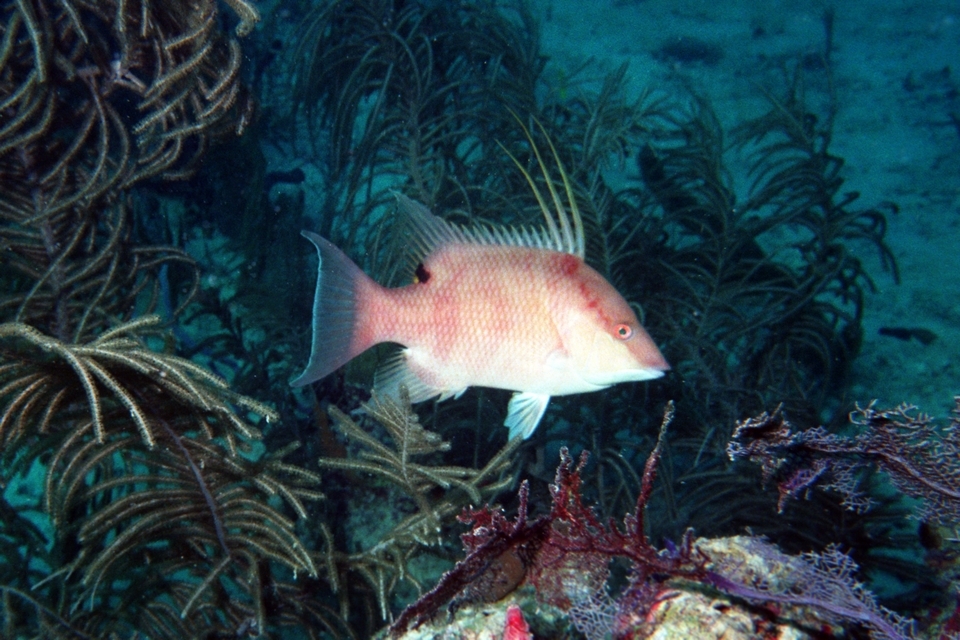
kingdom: Animalia
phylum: Chordata
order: Perciformes
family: Labridae
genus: Lachnolaimus
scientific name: Lachnolaimus maximus
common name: Hogfish
